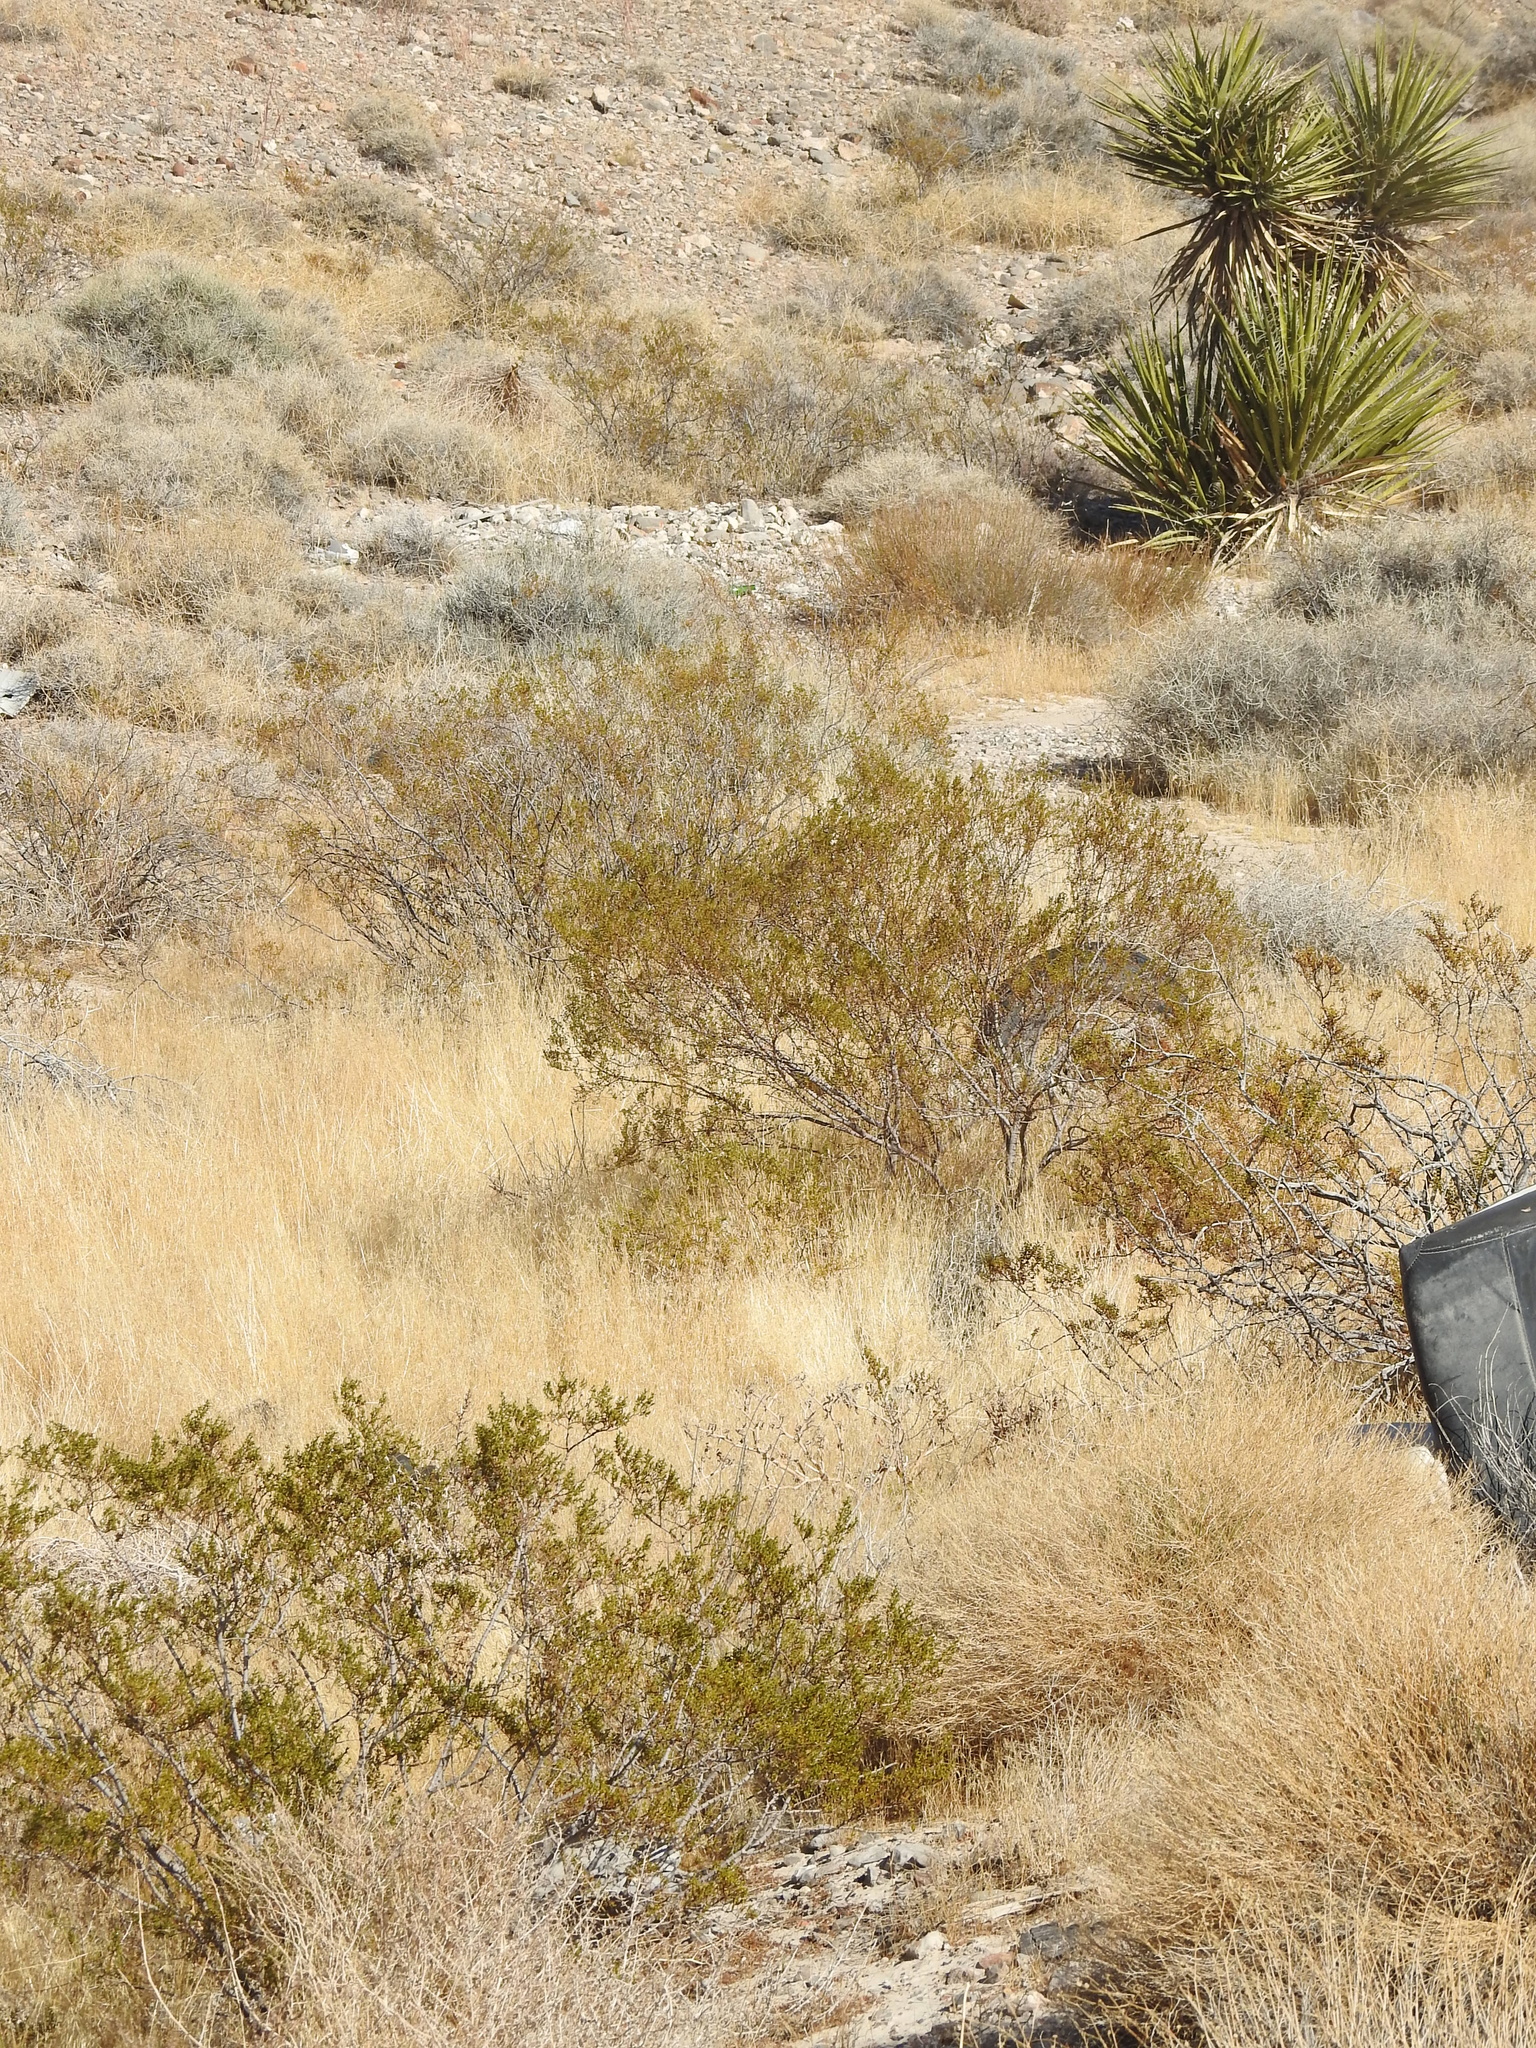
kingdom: Plantae
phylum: Tracheophyta
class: Magnoliopsida
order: Zygophyllales
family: Zygophyllaceae
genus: Larrea
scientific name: Larrea tridentata
